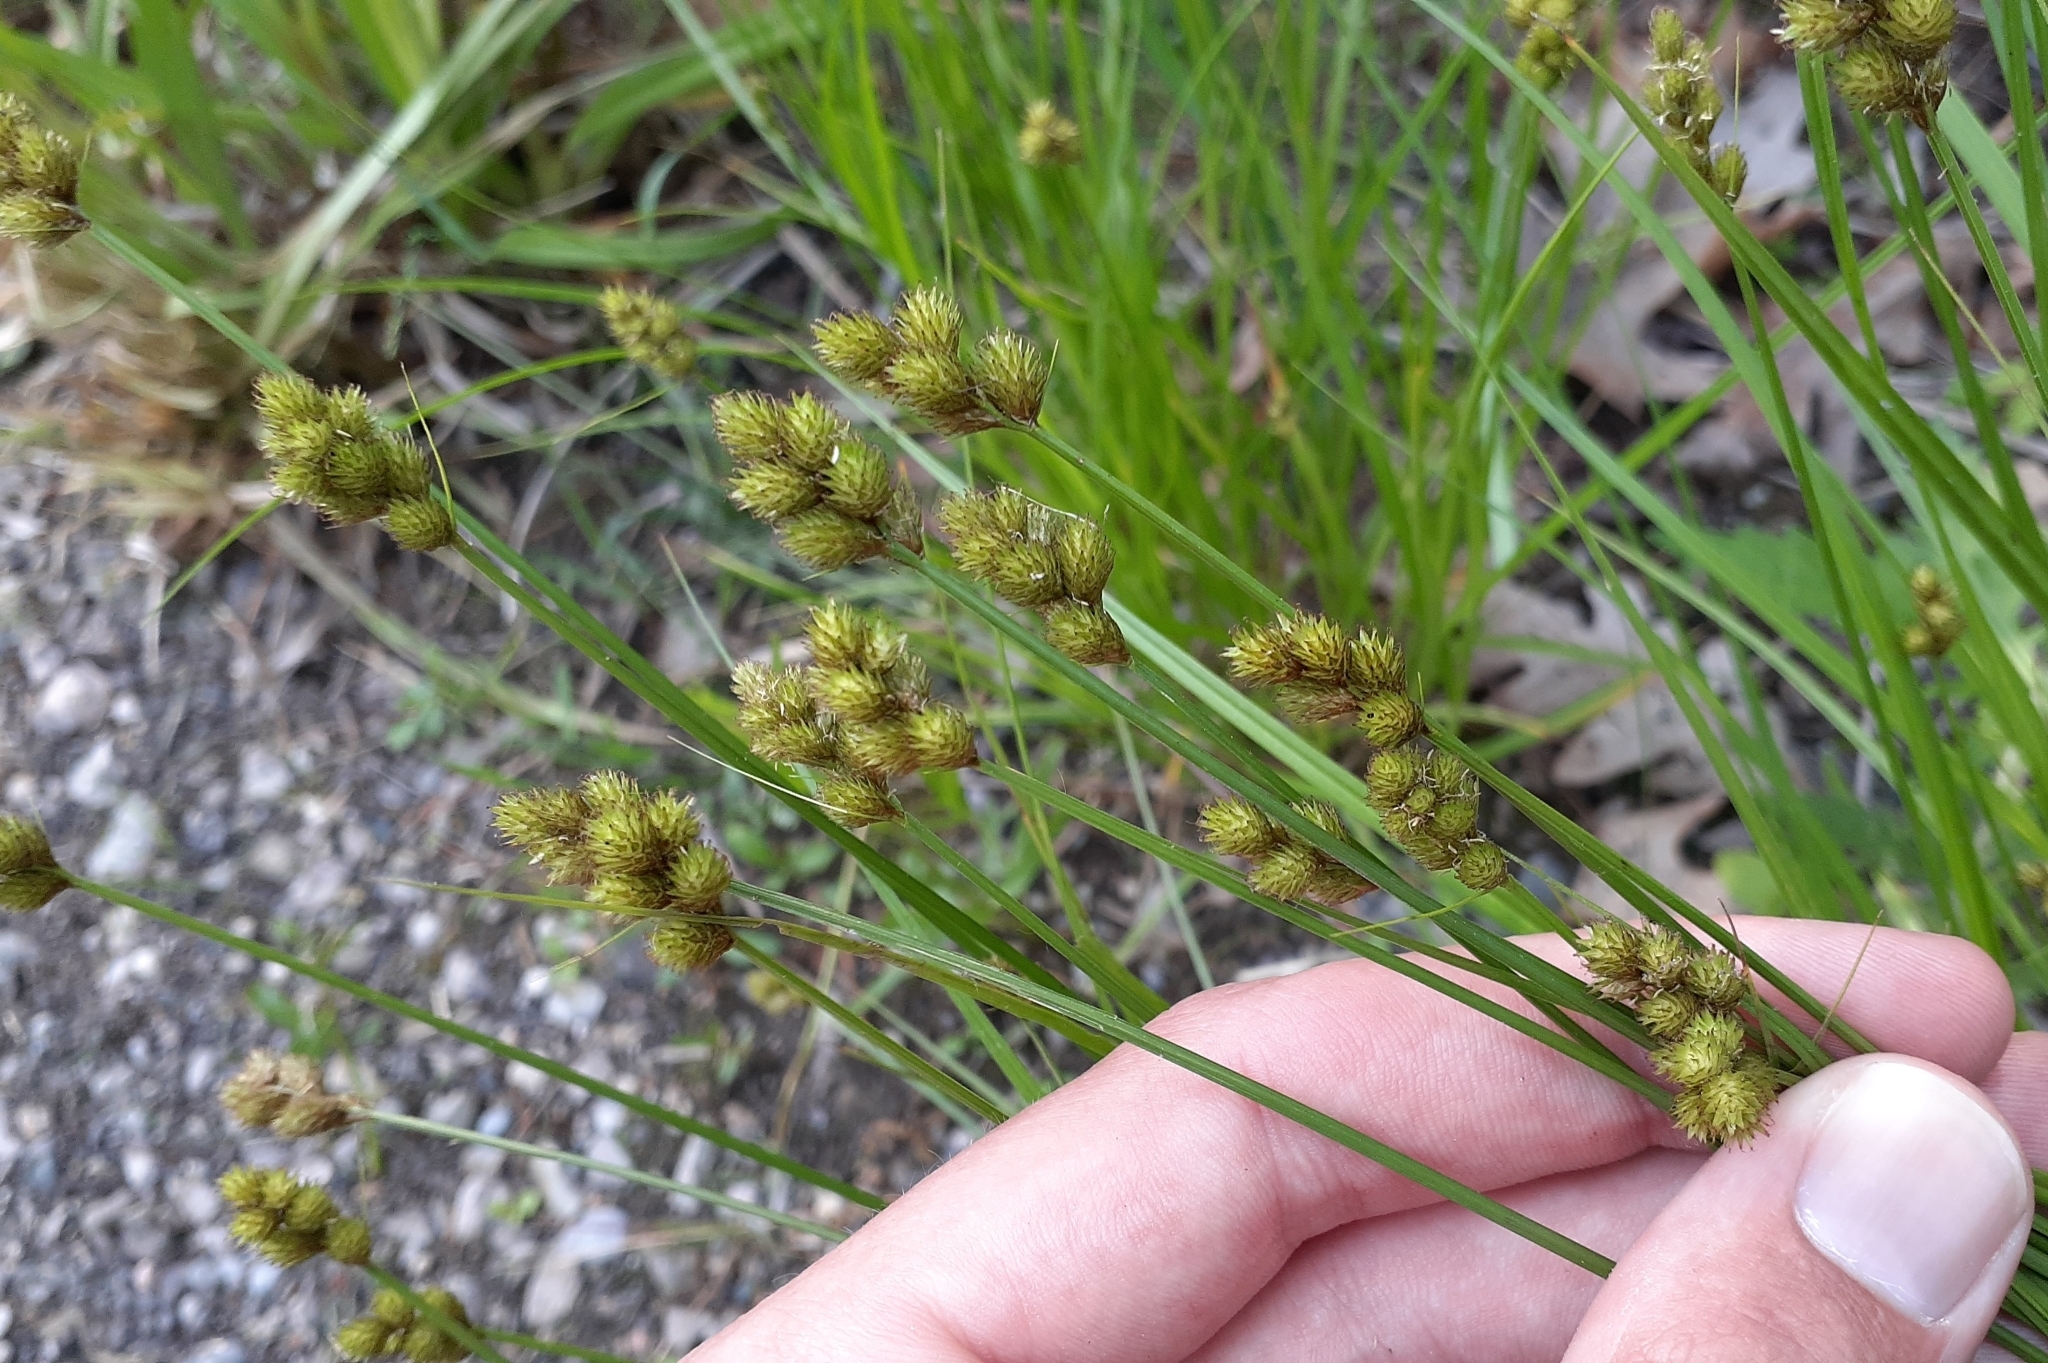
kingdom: Plantae
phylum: Tracheophyta
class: Liliopsida
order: Poales
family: Cyperaceae
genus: Carex
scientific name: Carex bebbii
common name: Bebb's sedge
